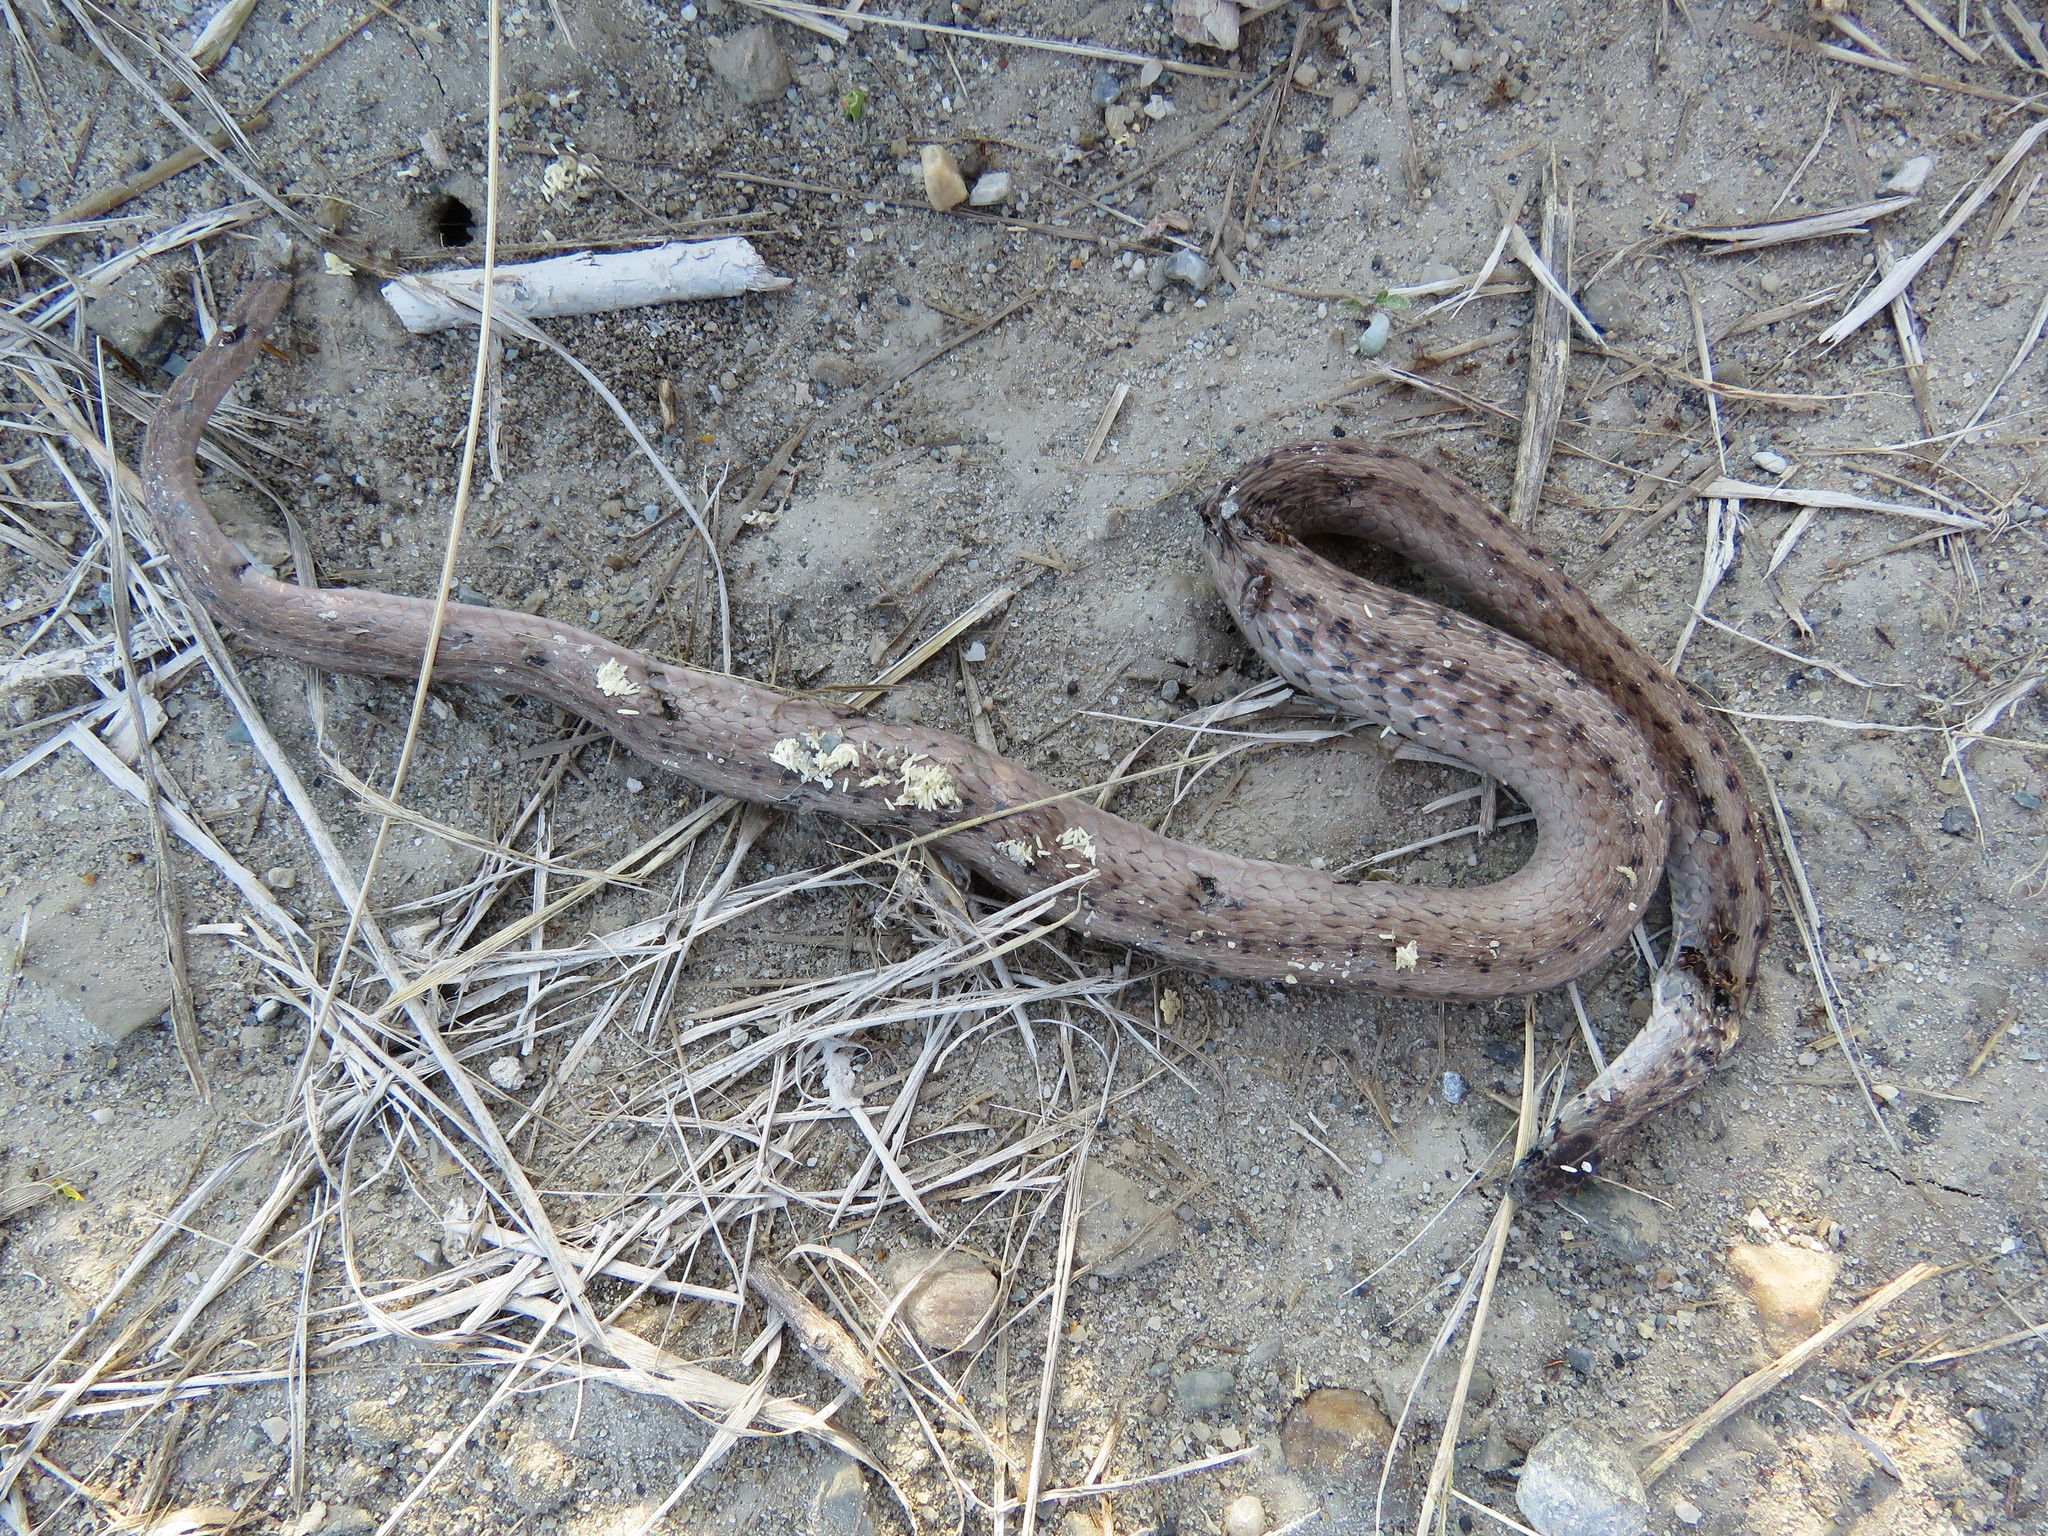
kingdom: Animalia
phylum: Chordata
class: Squamata
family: Colubridae
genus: Storeria
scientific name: Storeria dekayi
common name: (dekay’s) brown snake
